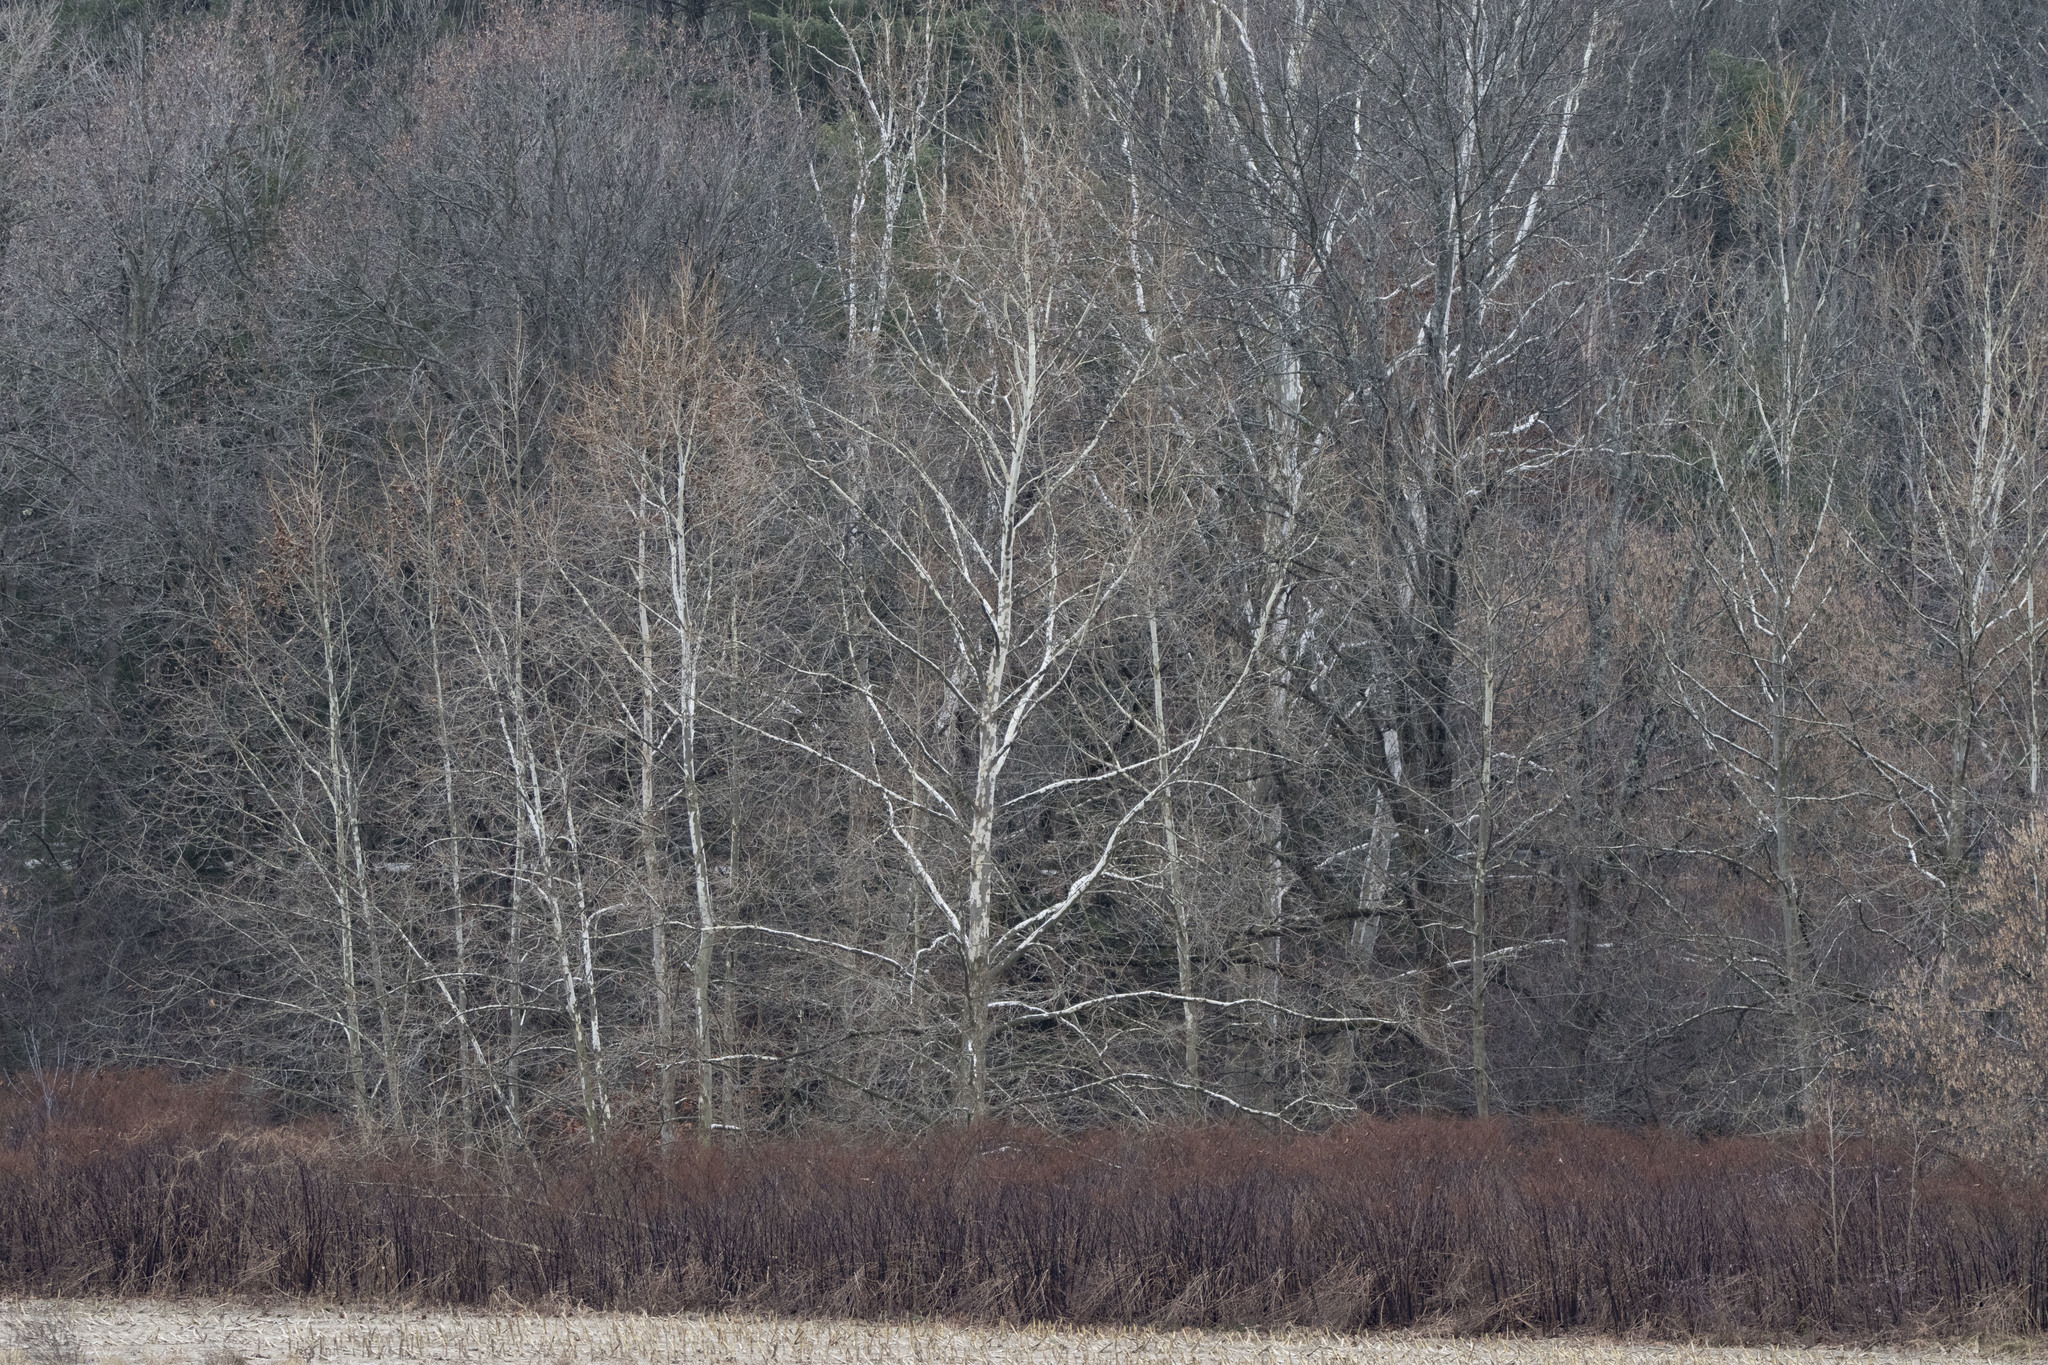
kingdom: Plantae
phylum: Tracheophyta
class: Magnoliopsida
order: Proteales
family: Platanaceae
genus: Platanus
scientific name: Platanus occidentalis
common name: American sycamore
